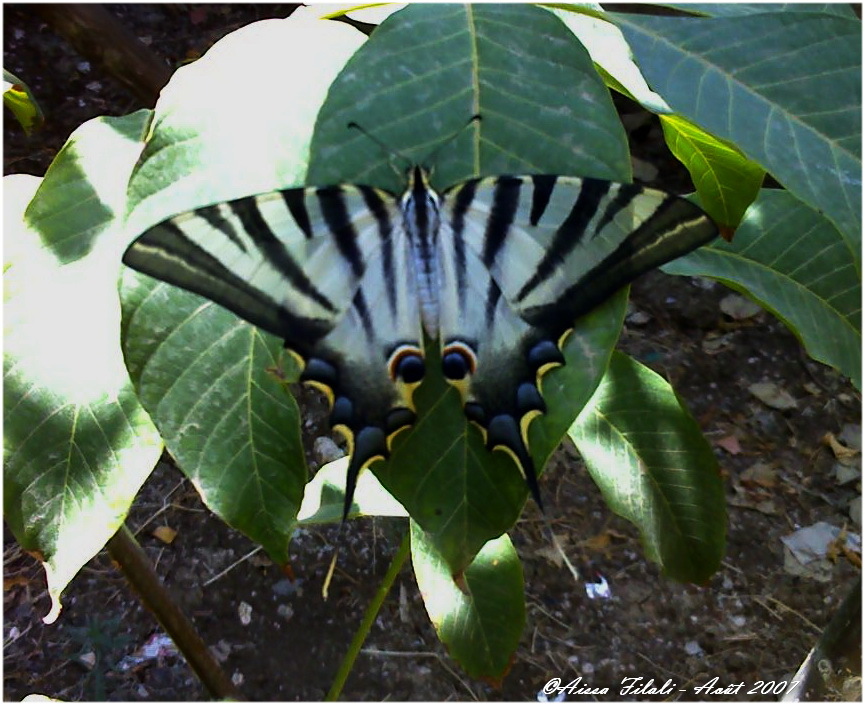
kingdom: Animalia
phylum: Arthropoda
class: Insecta
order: Lepidoptera
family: Papilionidae
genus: Iphiclides
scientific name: Iphiclides feisthamelii
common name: Iberian scarce swallowtail
